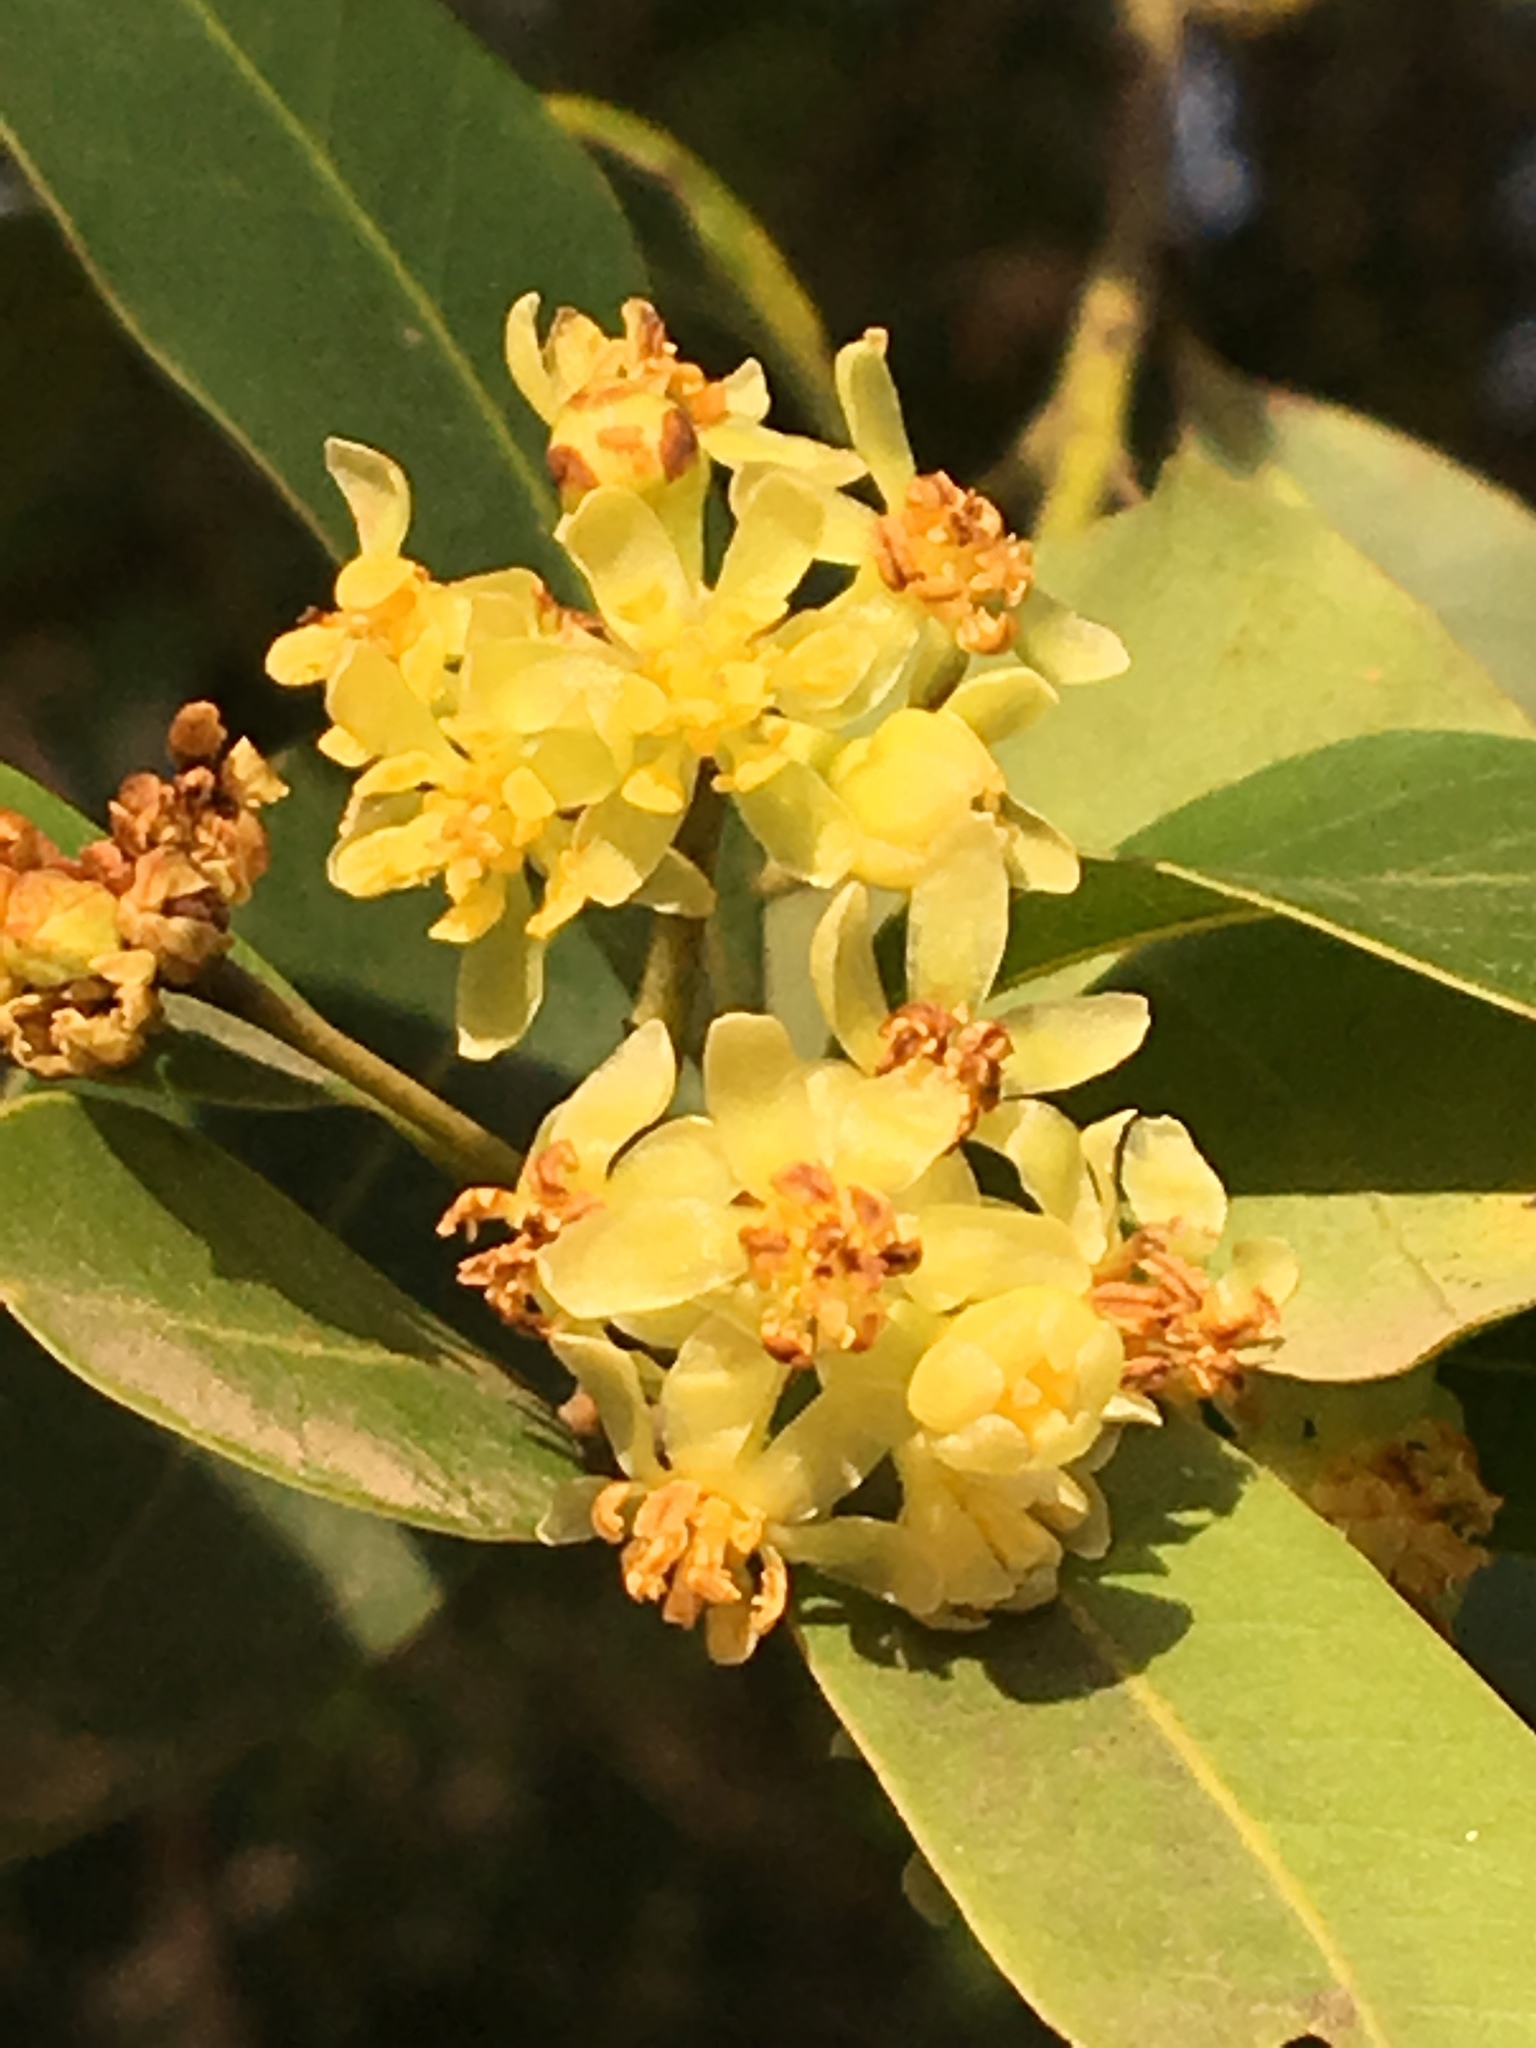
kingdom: Plantae
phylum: Tracheophyta
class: Magnoliopsida
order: Laurales
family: Lauraceae
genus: Umbellularia
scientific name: Umbellularia californica
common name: California bay
